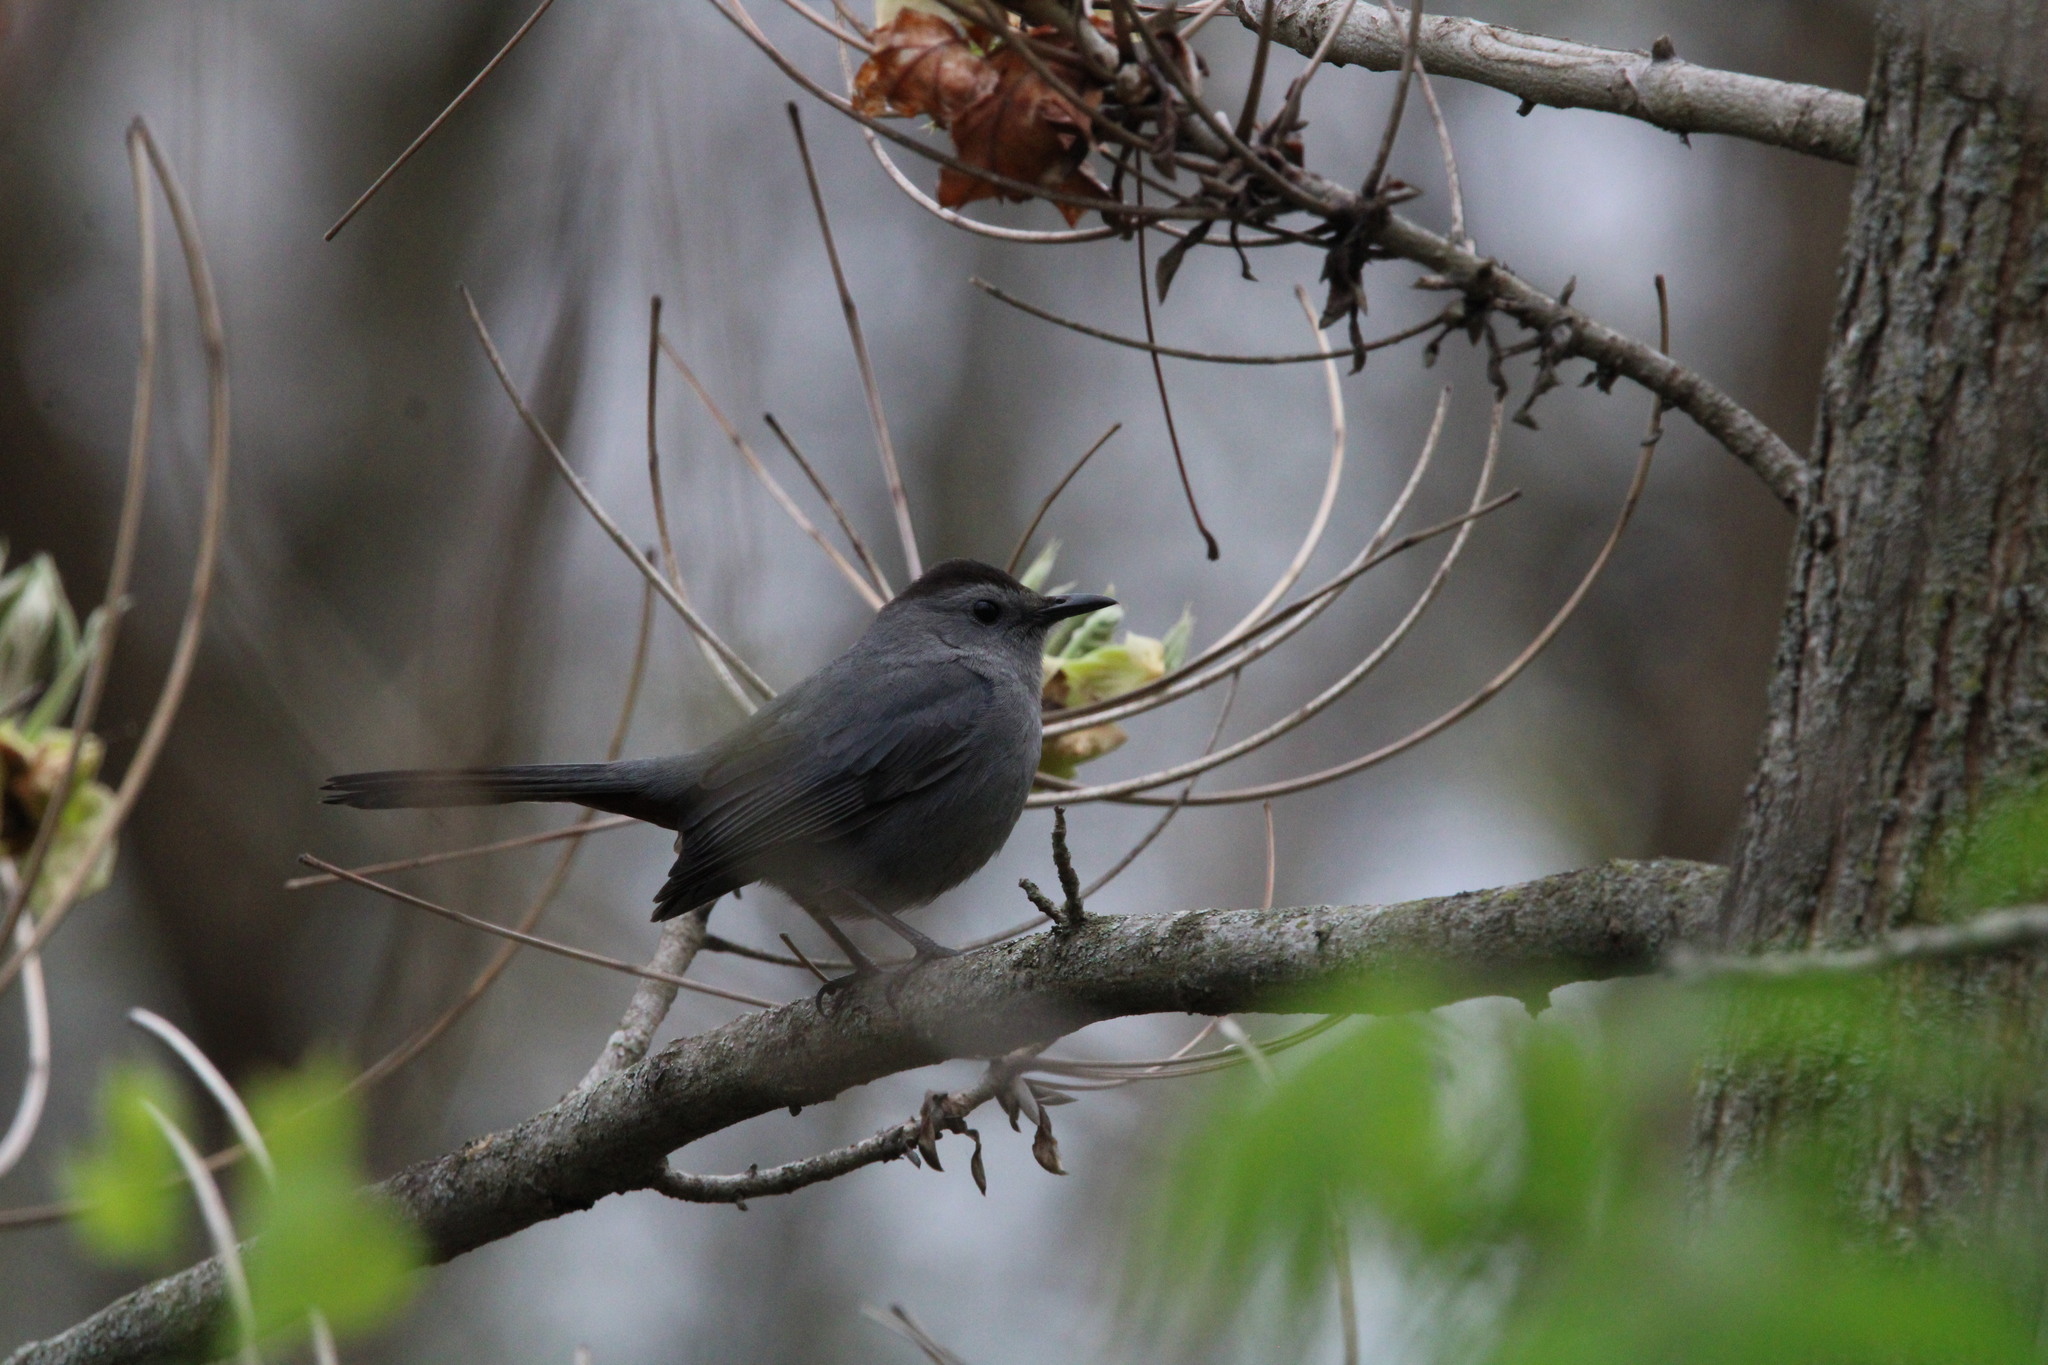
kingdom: Animalia
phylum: Chordata
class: Aves
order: Passeriformes
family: Mimidae
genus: Dumetella
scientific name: Dumetella carolinensis
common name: Gray catbird
